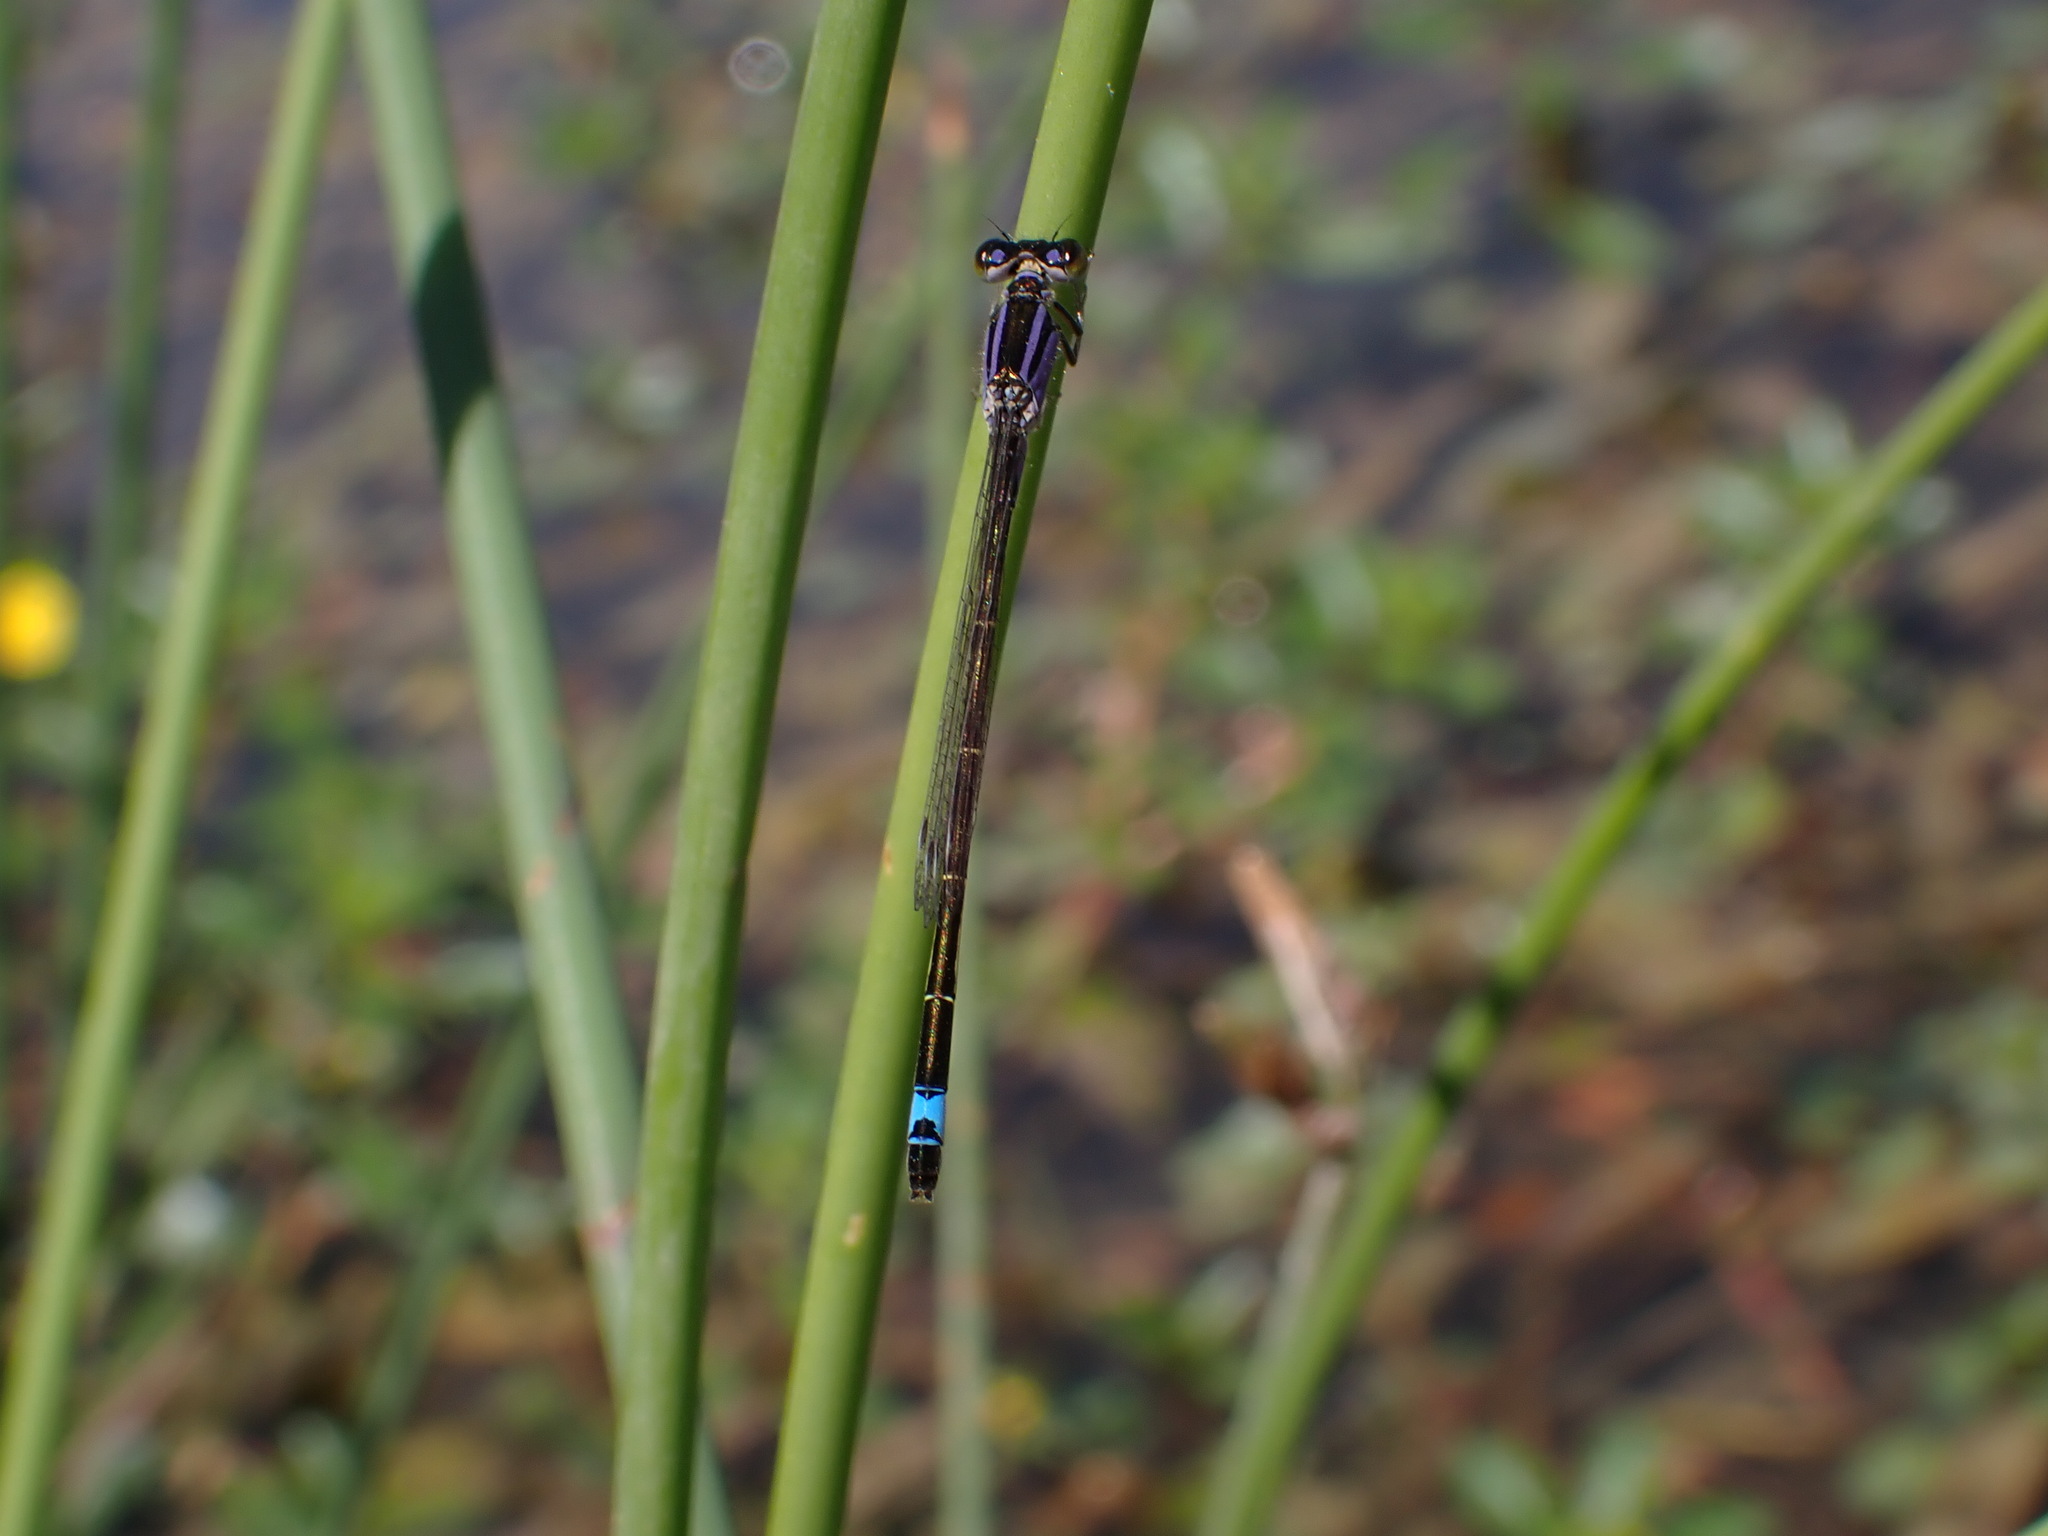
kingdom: Animalia
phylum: Arthropoda
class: Insecta
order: Odonata
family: Coenagrionidae
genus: Ischnura
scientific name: Ischnura elegans
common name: Blue-tailed damselfly
